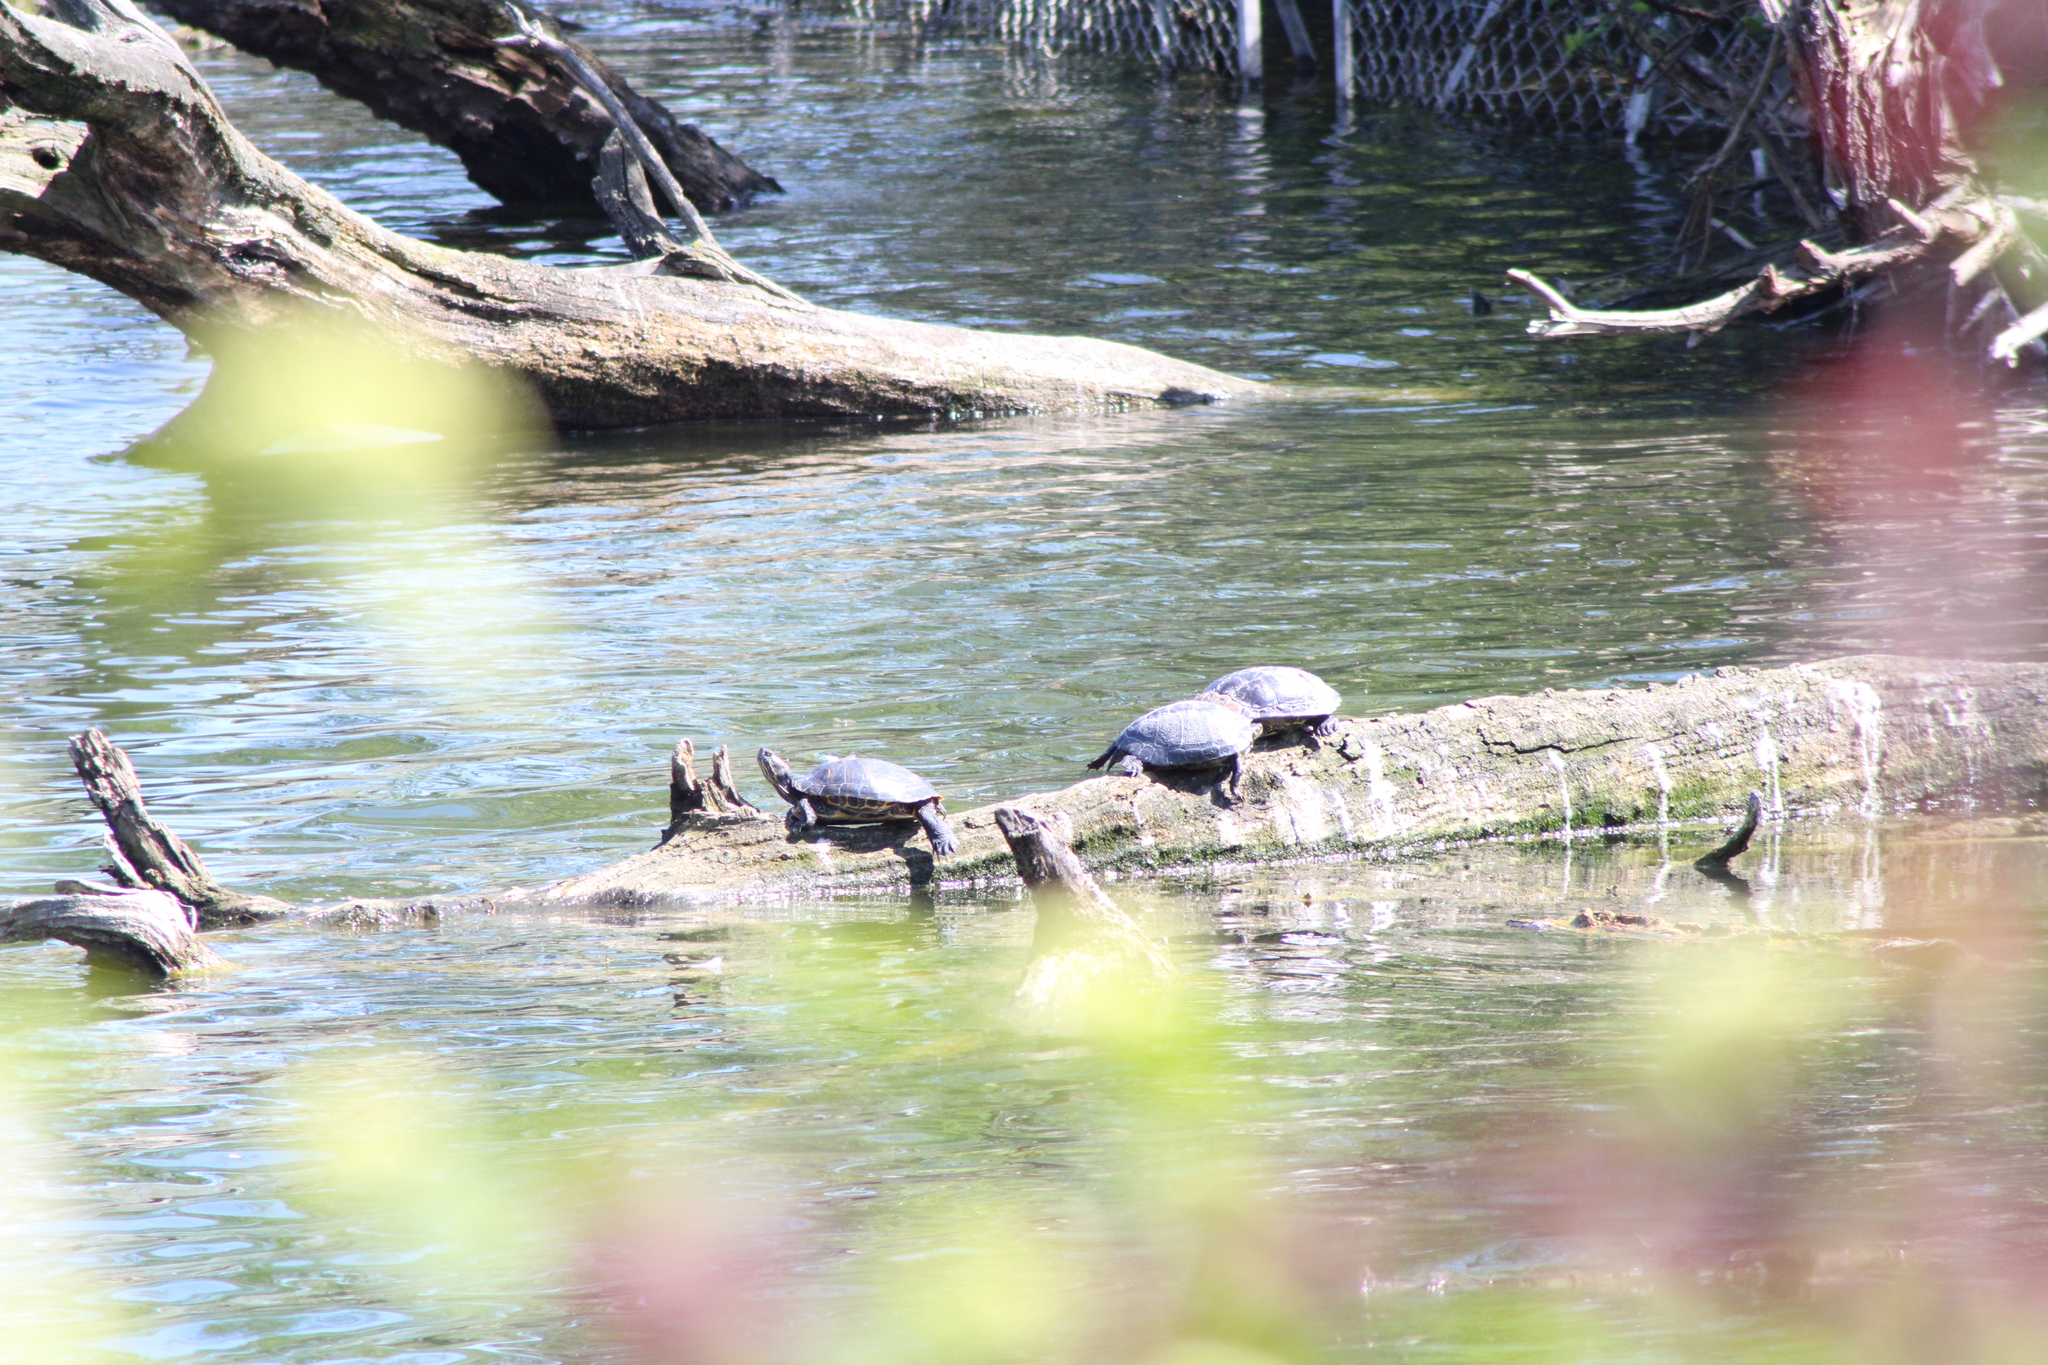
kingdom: Animalia
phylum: Chordata
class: Testudines
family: Emydidae
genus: Trachemys
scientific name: Trachemys scripta
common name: Slider
